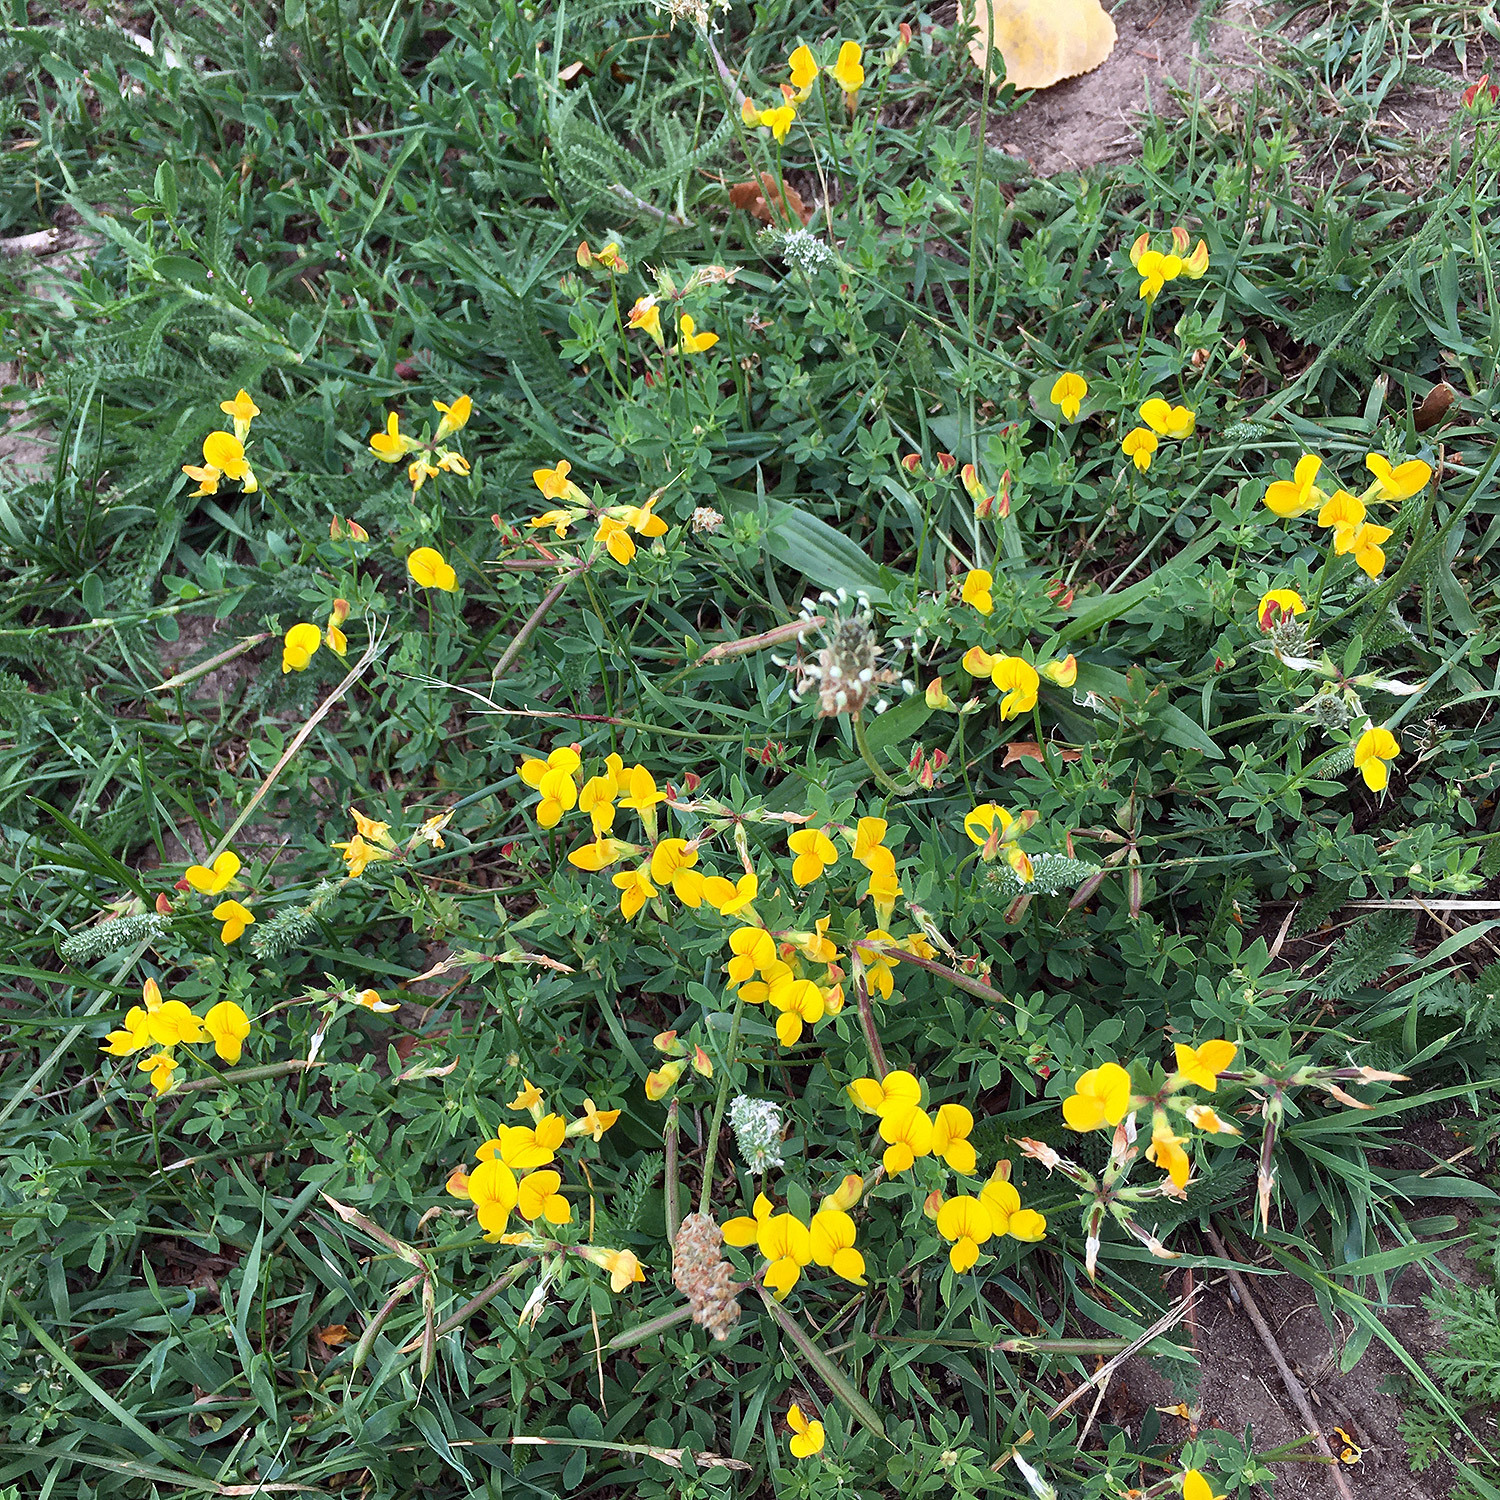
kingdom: Plantae
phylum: Tracheophyta
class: Magnoliopsida
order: Fabales
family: Fabaceae
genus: Lotus
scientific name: Lotus corniculatus
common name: Common bird's-foot-trefoil
